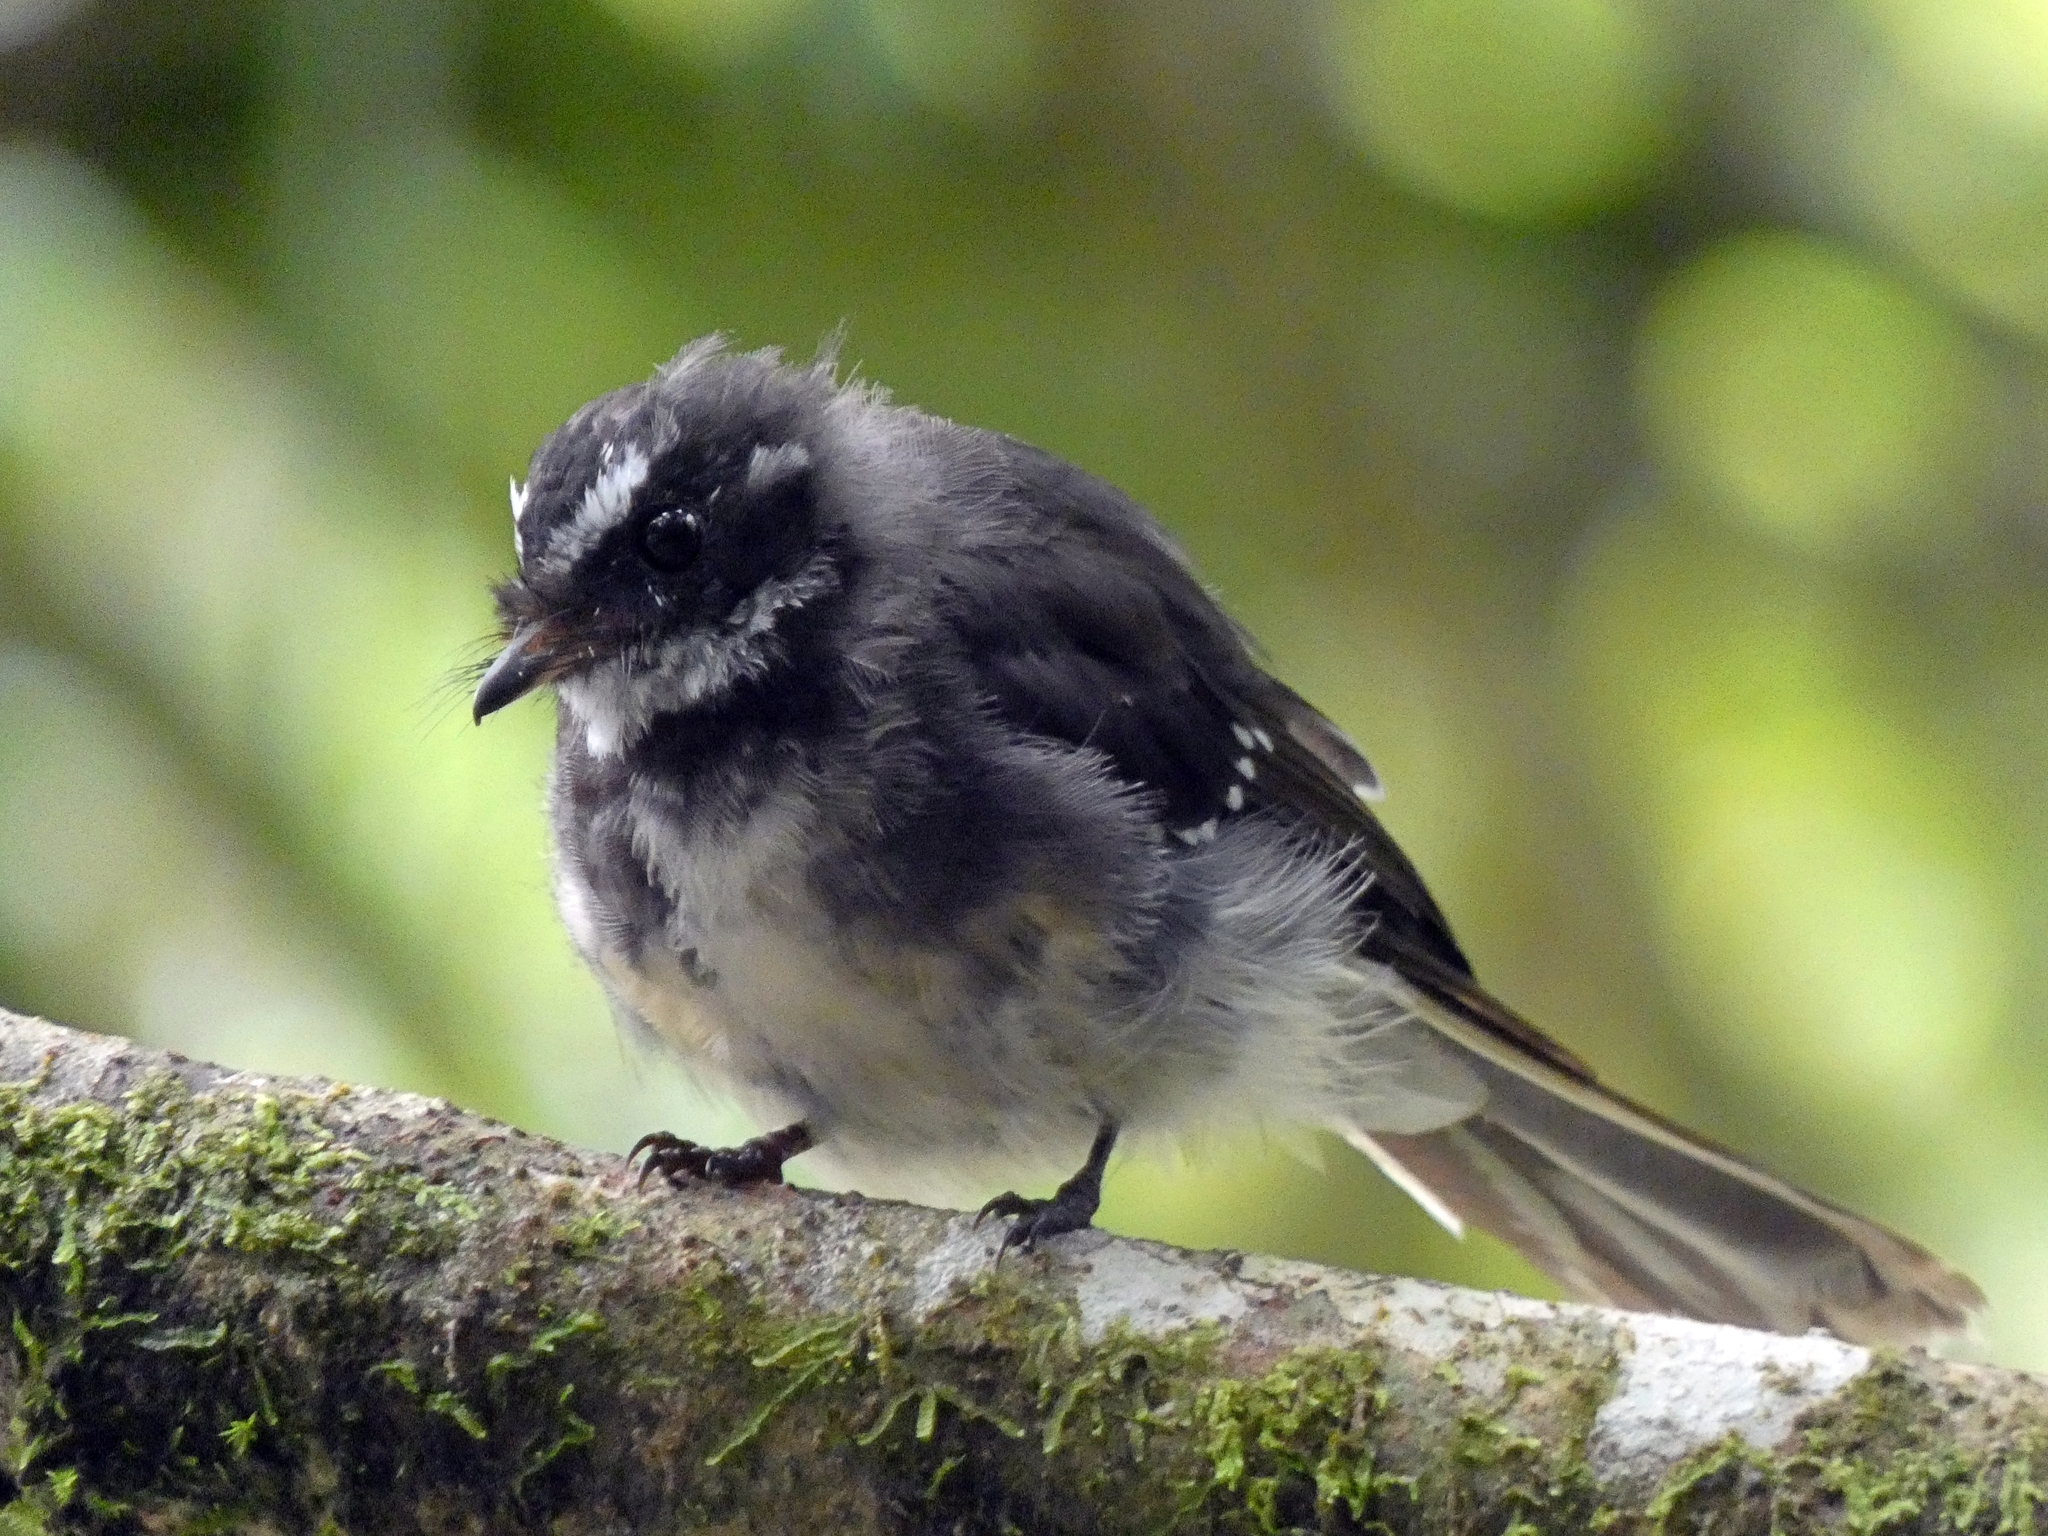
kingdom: Animalia
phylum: Chordata
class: Aves
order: Passeriformes
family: Rhipiduridae
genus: Rhipidura
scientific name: Rhipidura albiscapa
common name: Grey fantail
